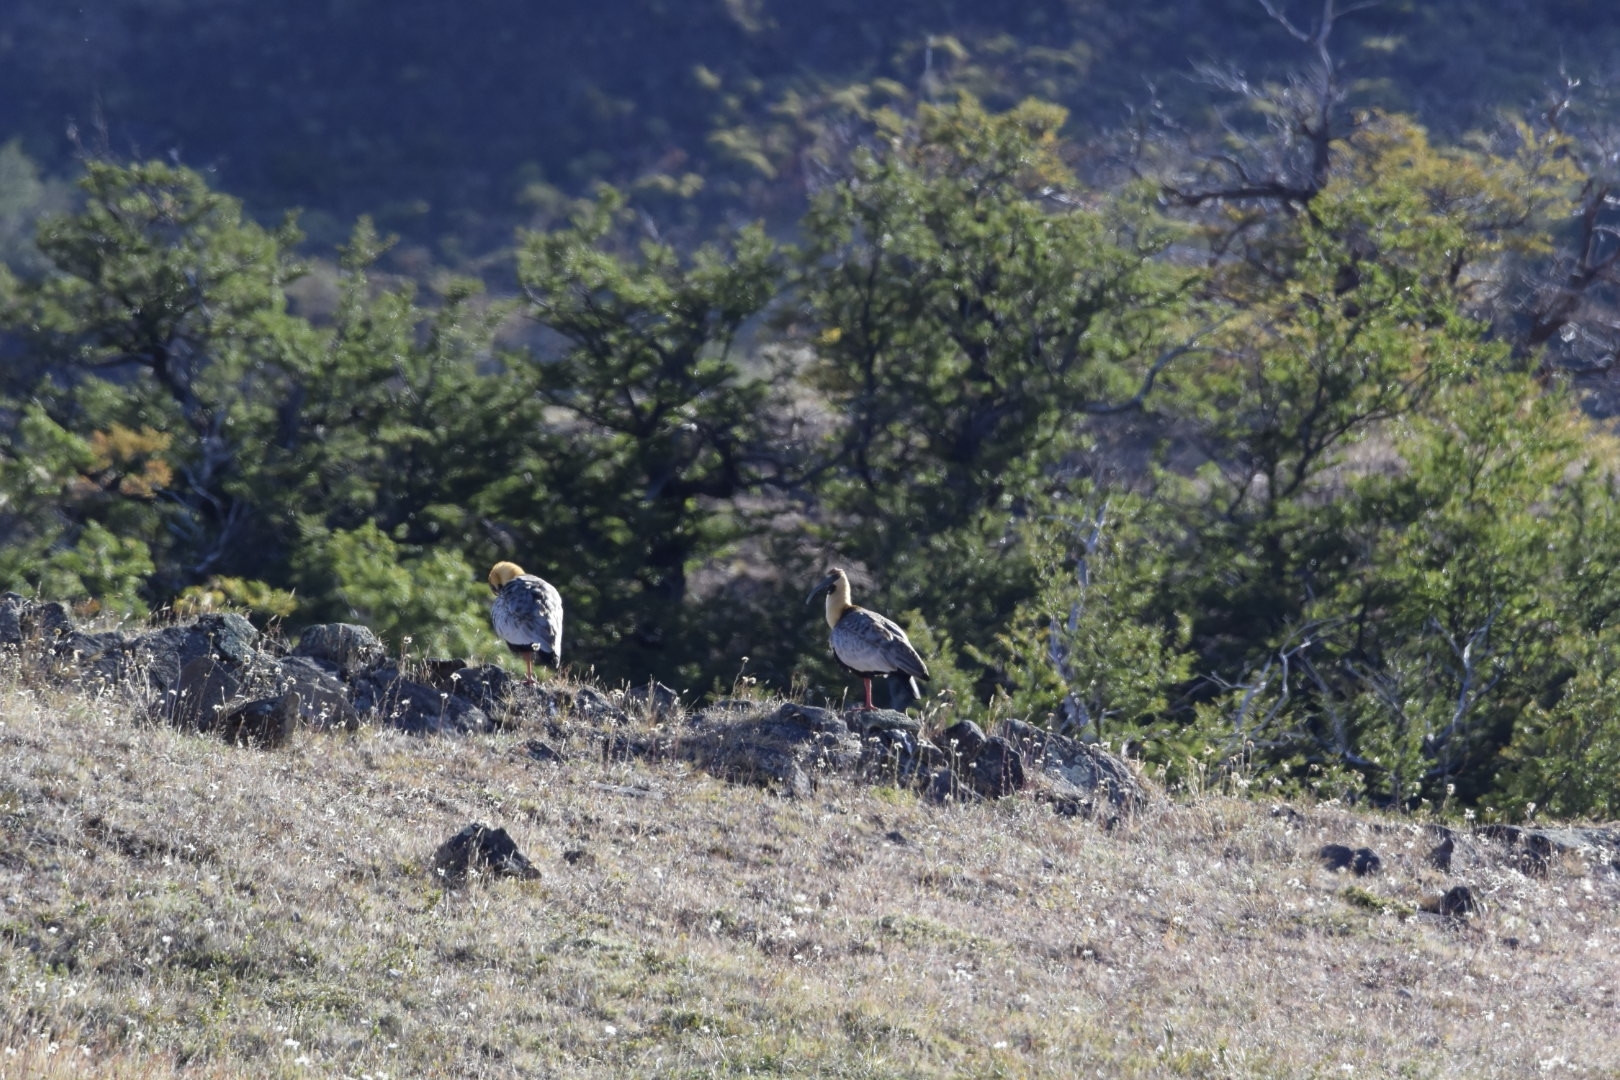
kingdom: Animalia
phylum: Chordata
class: Aves
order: Pelecaniformes
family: Threskiornithidae
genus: Theristicus
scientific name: Theristicus melanopis
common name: Black-faced ibis
